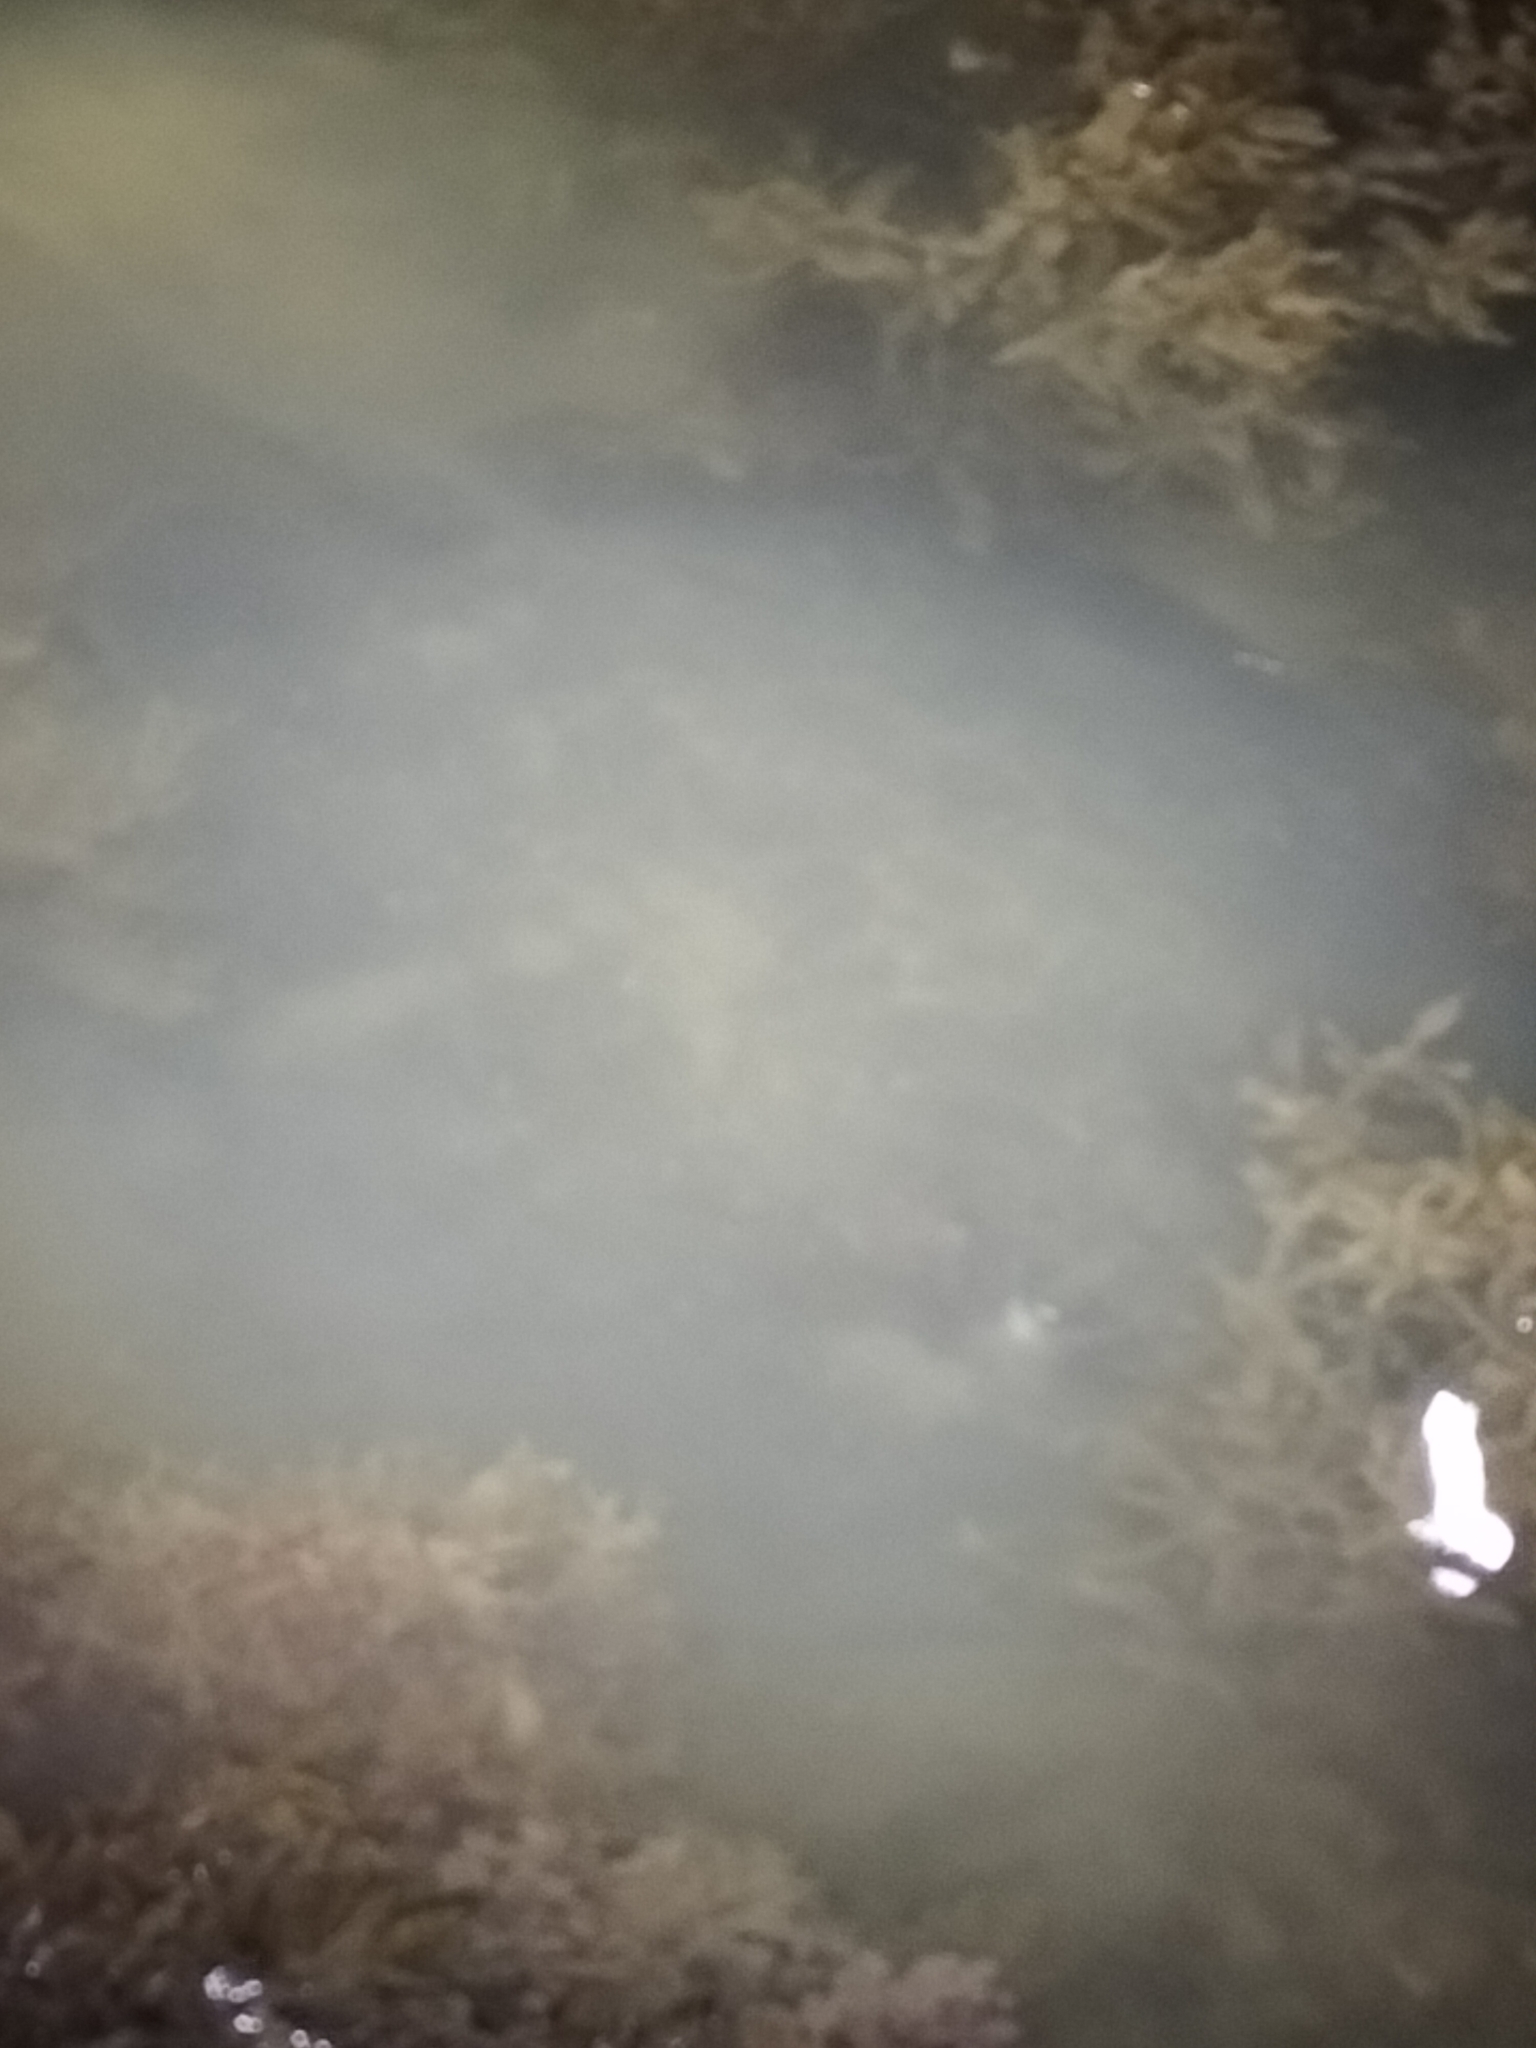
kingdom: Animalia
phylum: Chordata
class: Elasmobranchii
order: Myliobatiformes
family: Dasyatidae
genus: Urogymnus
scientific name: Urogymnus granulatus
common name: Mangrove whipray
